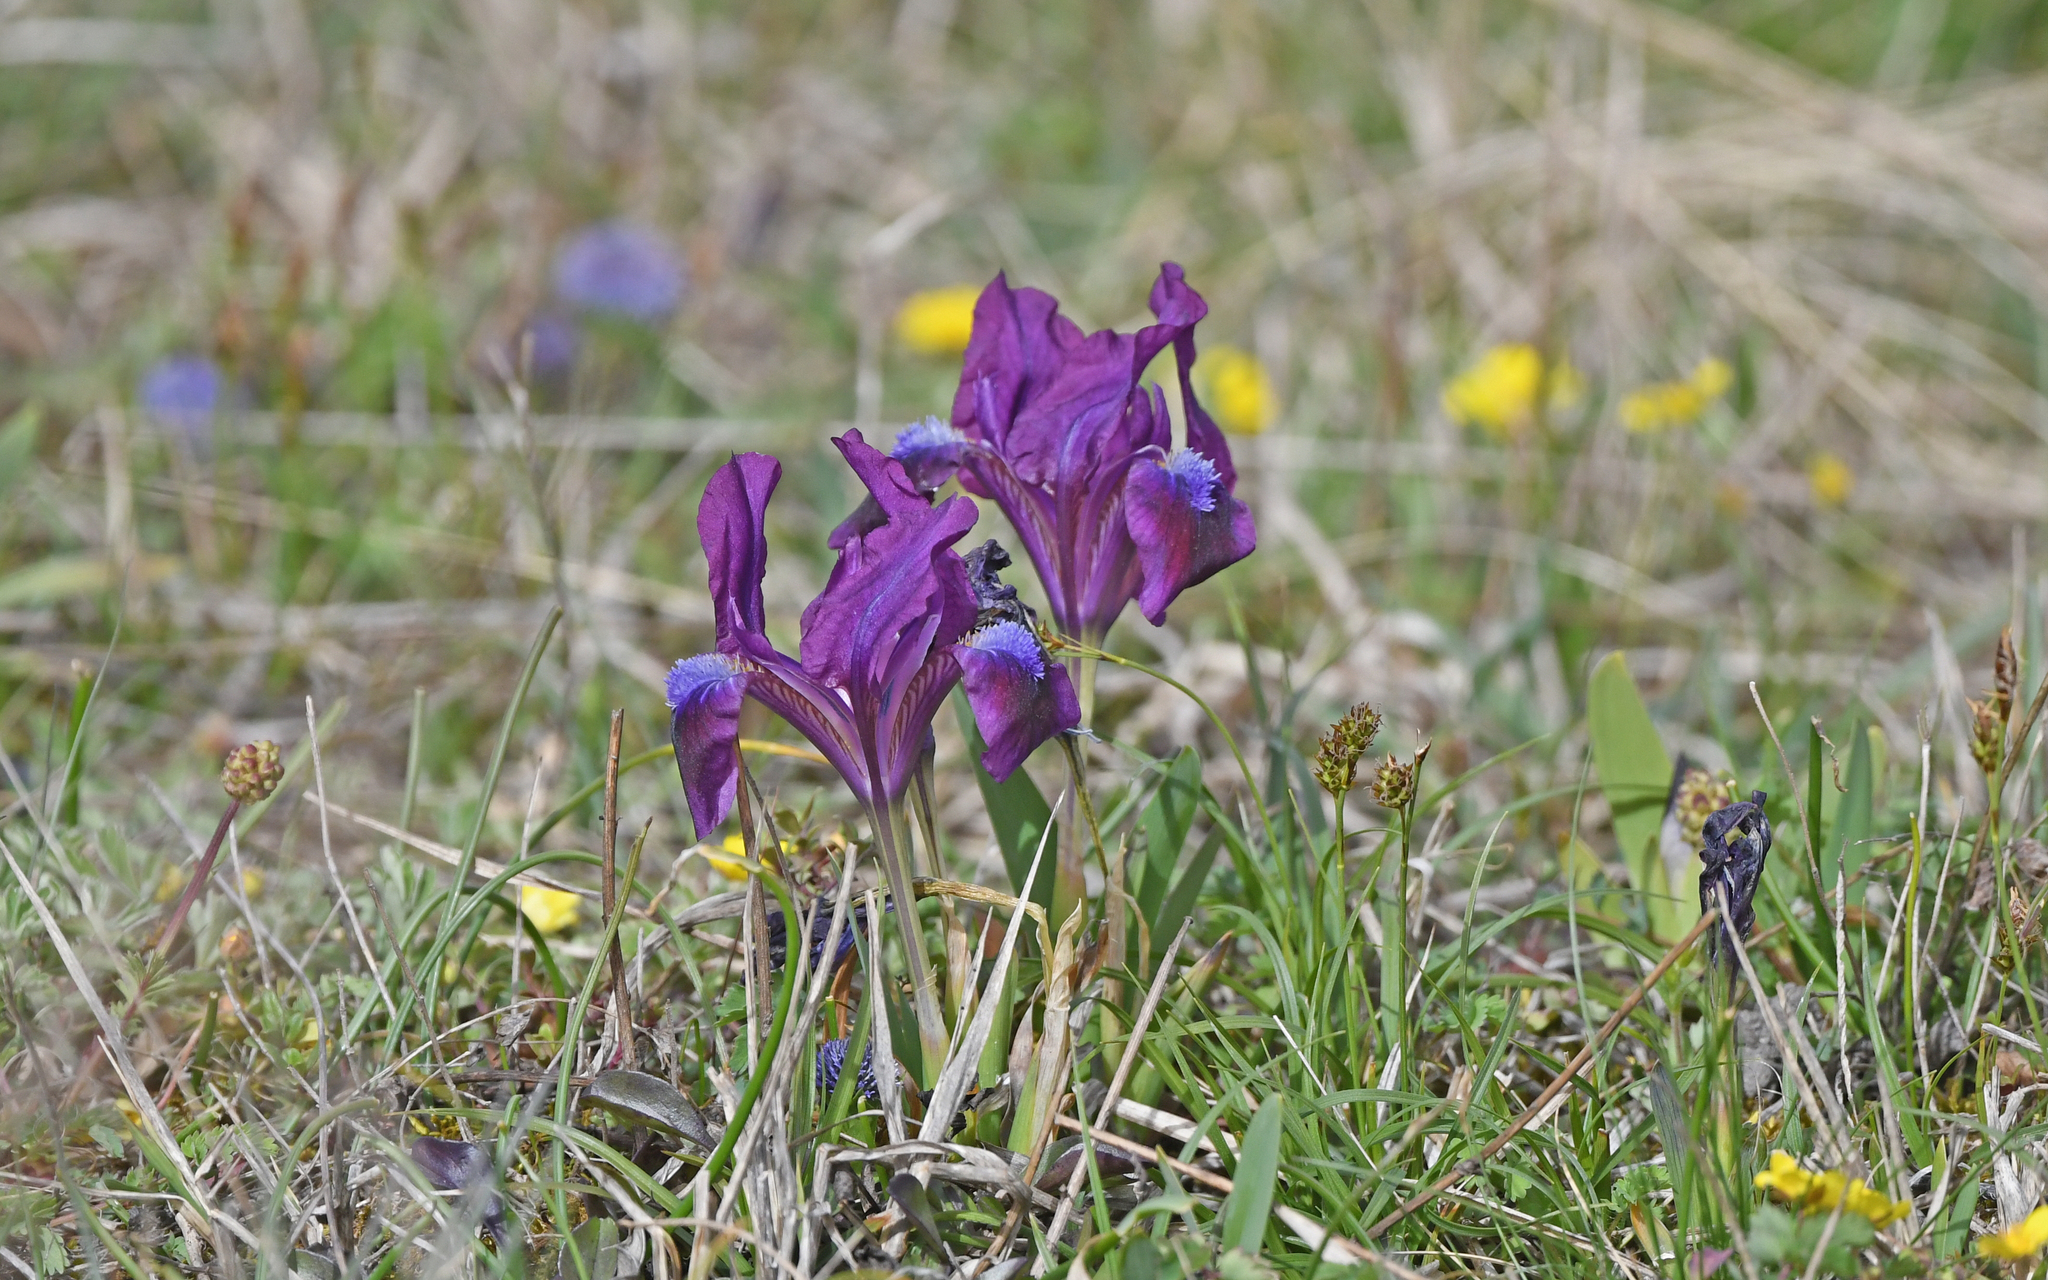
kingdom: Plantae
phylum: Tracheophyta
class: Liliopsida
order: Asparagales
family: Iridaceae
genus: Iris
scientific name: Iris pumila
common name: Dwarf iris
